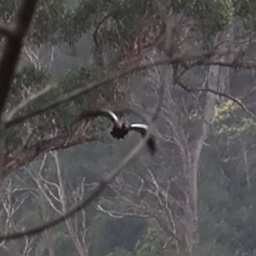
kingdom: Animalia
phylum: Chordata
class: Aves
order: Anseriformes
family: Anatidae
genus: Tadorna
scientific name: Tadorna tadornoides
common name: Australian shelduck
